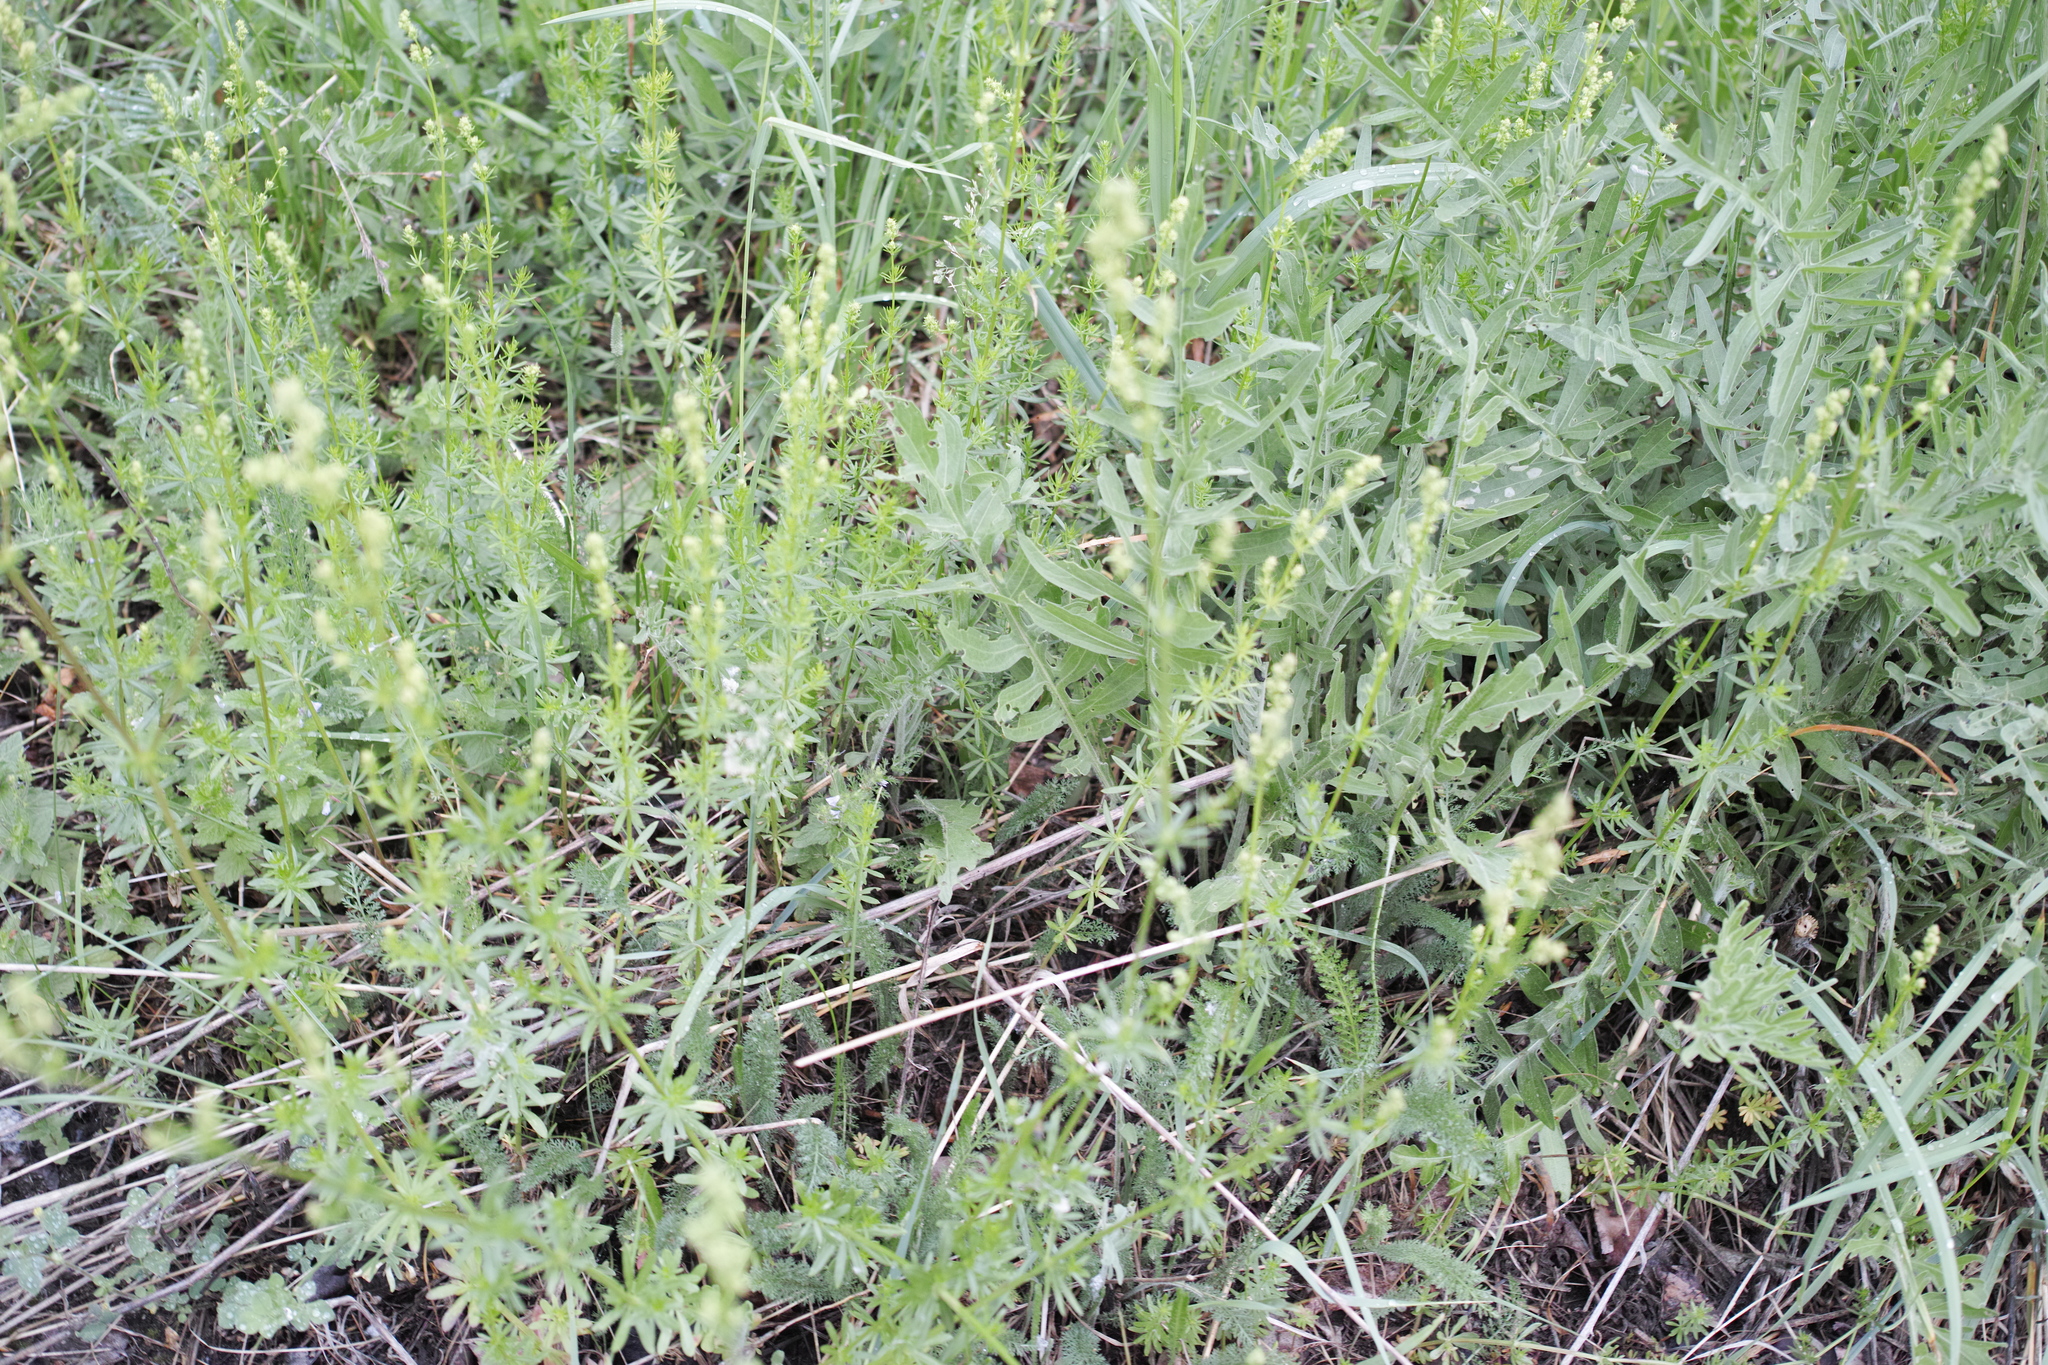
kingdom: Plantae
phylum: Tracheophyta
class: Magnoliopsida
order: Asterales
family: Asteraceae
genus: Centaurea
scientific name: Centaurea scabiosa
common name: Greater knapweed
